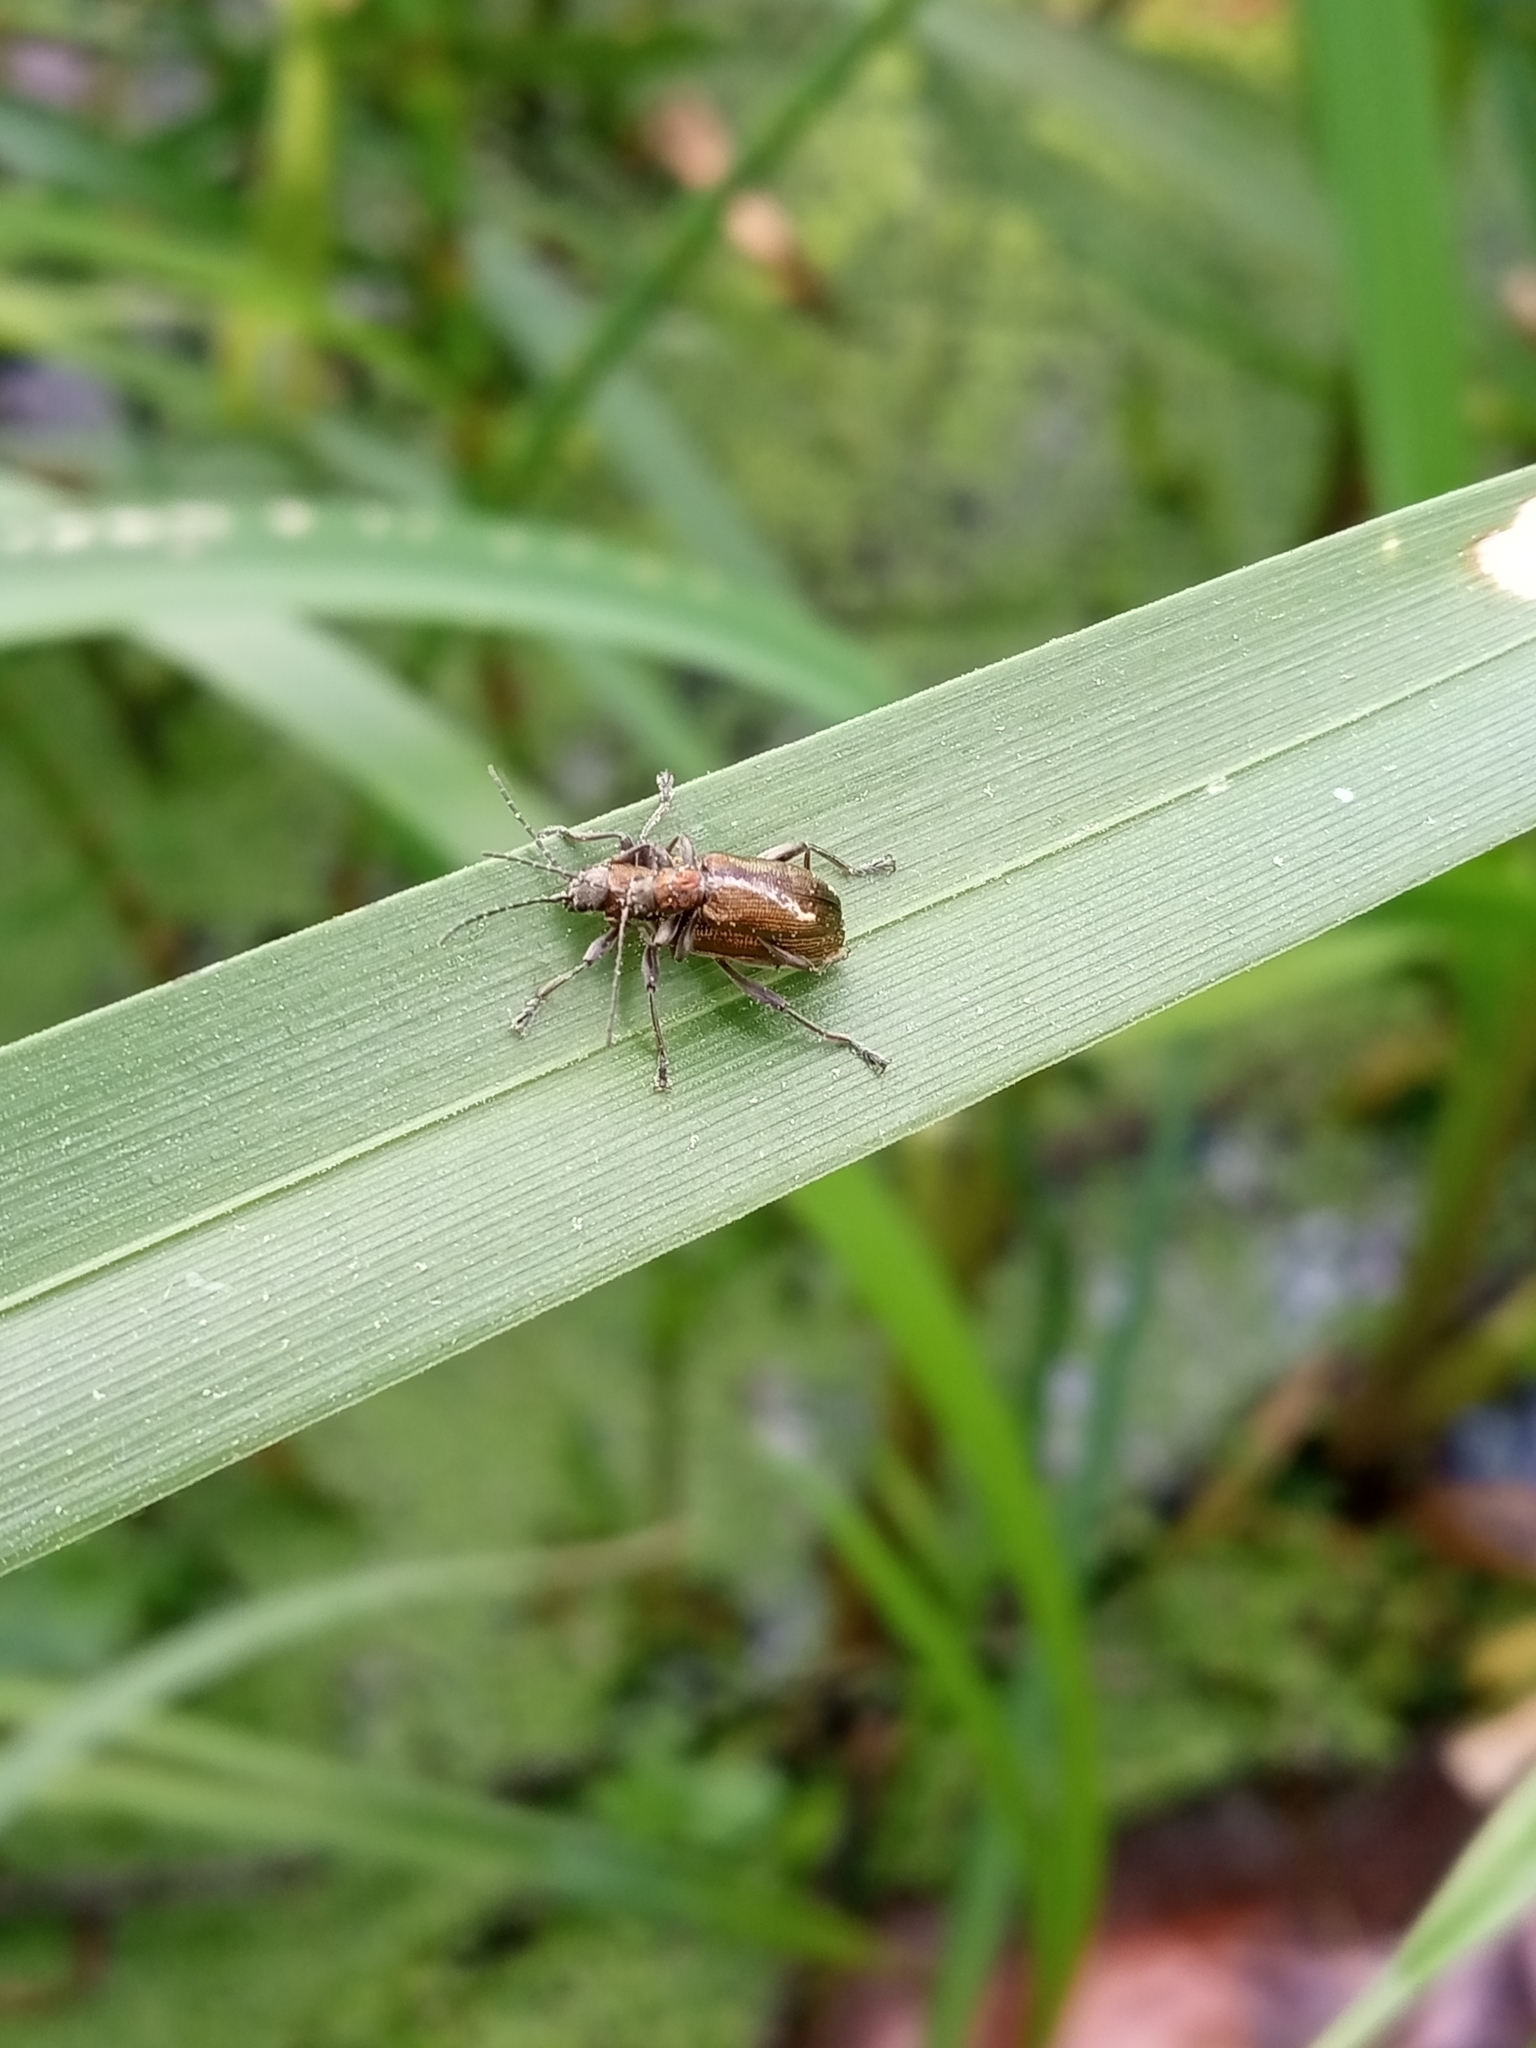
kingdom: Animalia
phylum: Arthropoda
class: Insecta
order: Coleoptera
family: Chrysomelidae
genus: Donacia
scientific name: Donacia semicuprea
